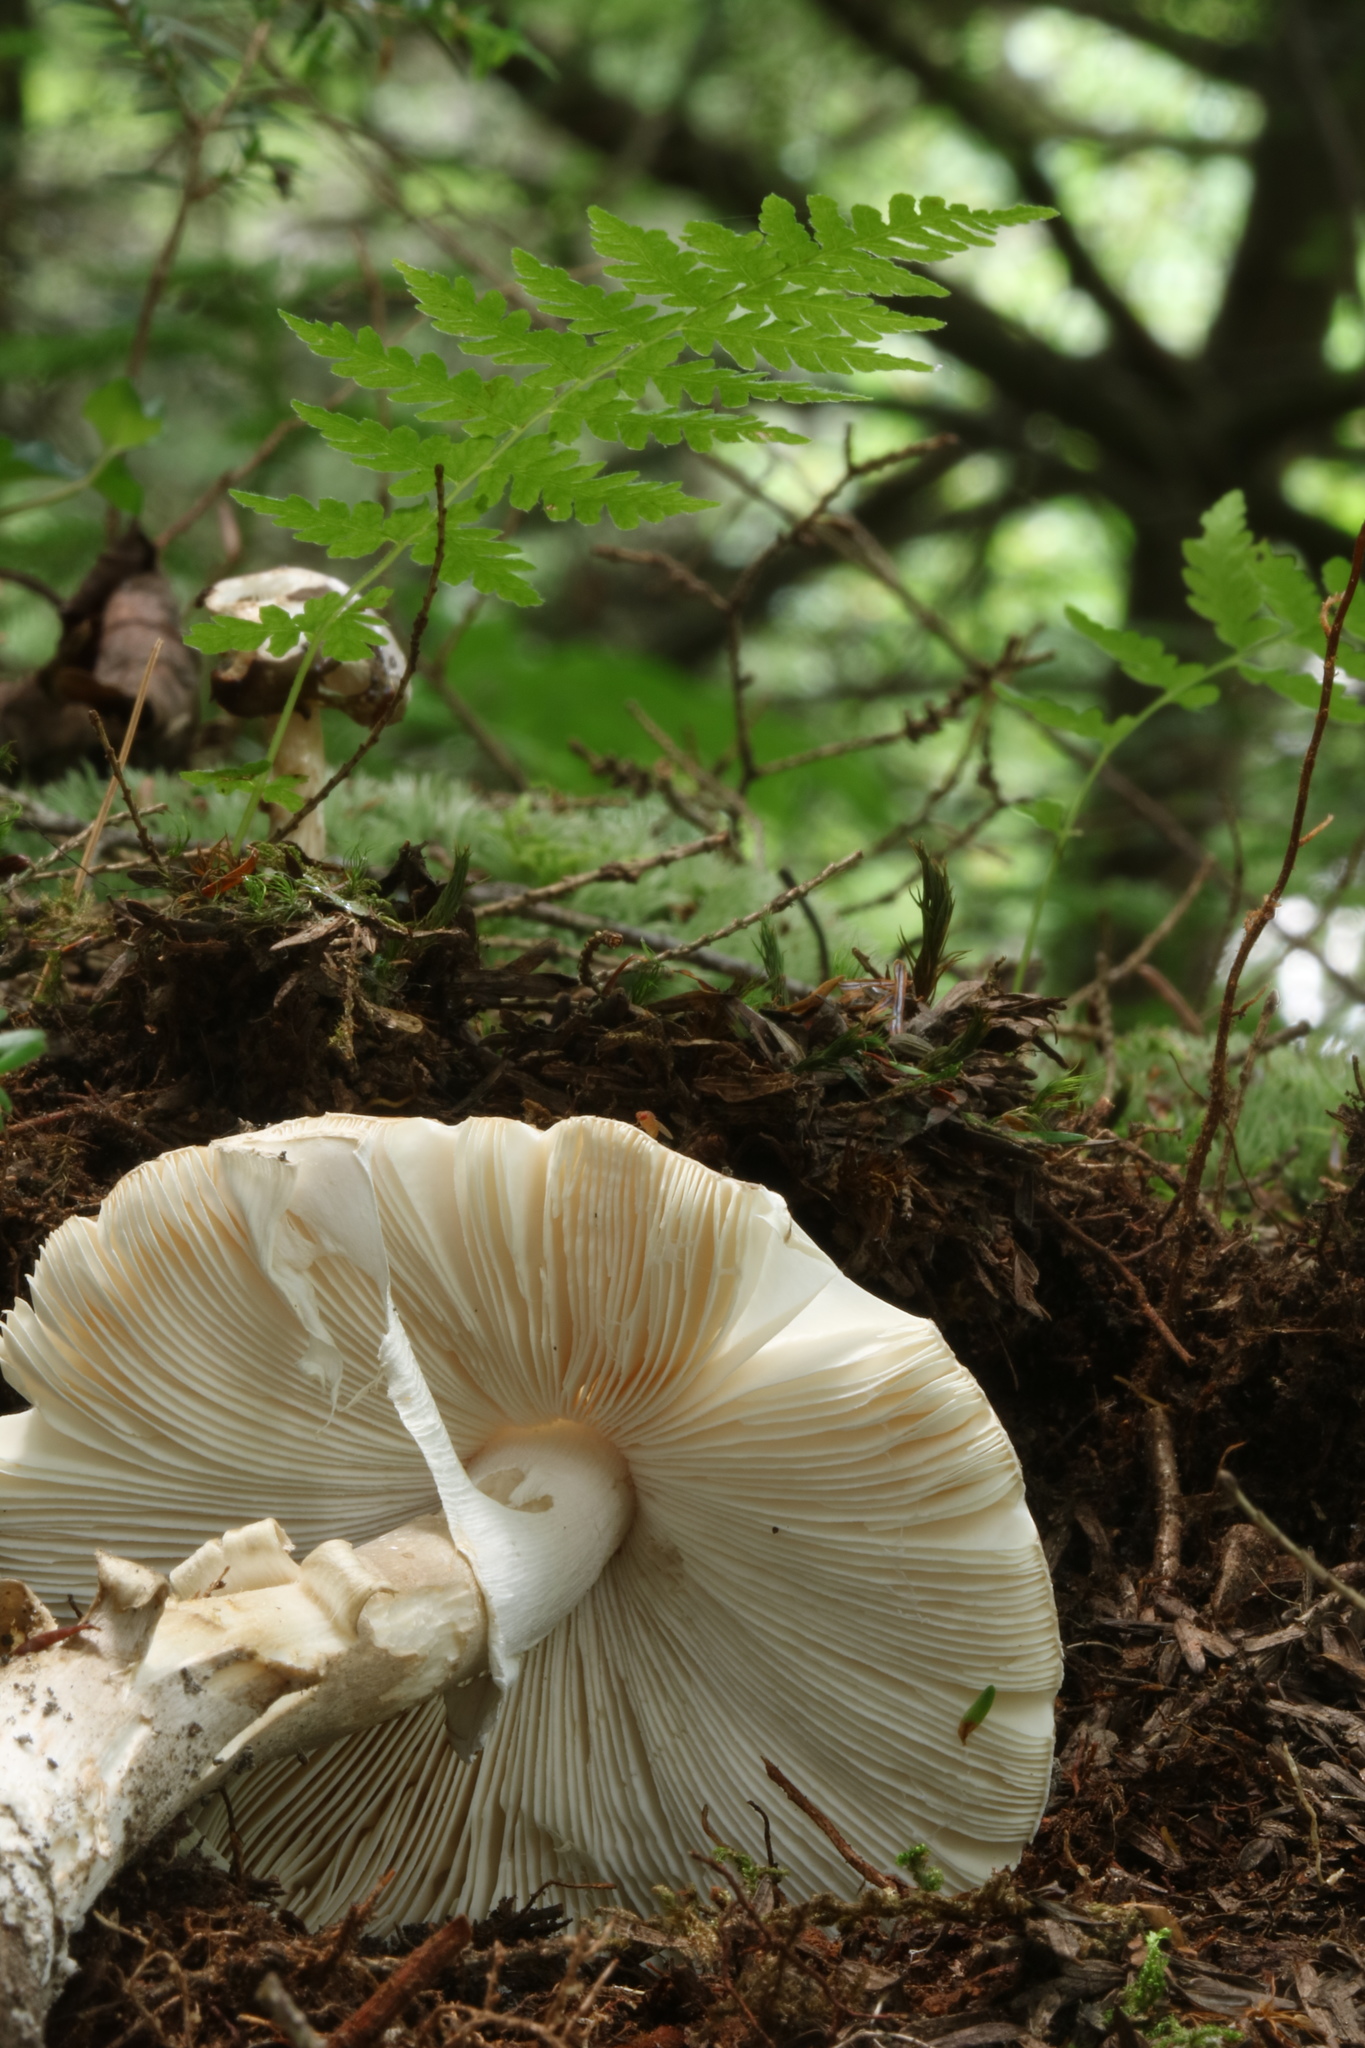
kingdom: Fungi
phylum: Basidiomycota
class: Agaricomycetes
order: Agaricales
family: Amanitaceae
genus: Amanita
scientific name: Amanita submaculata
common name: Ball gown amanita
